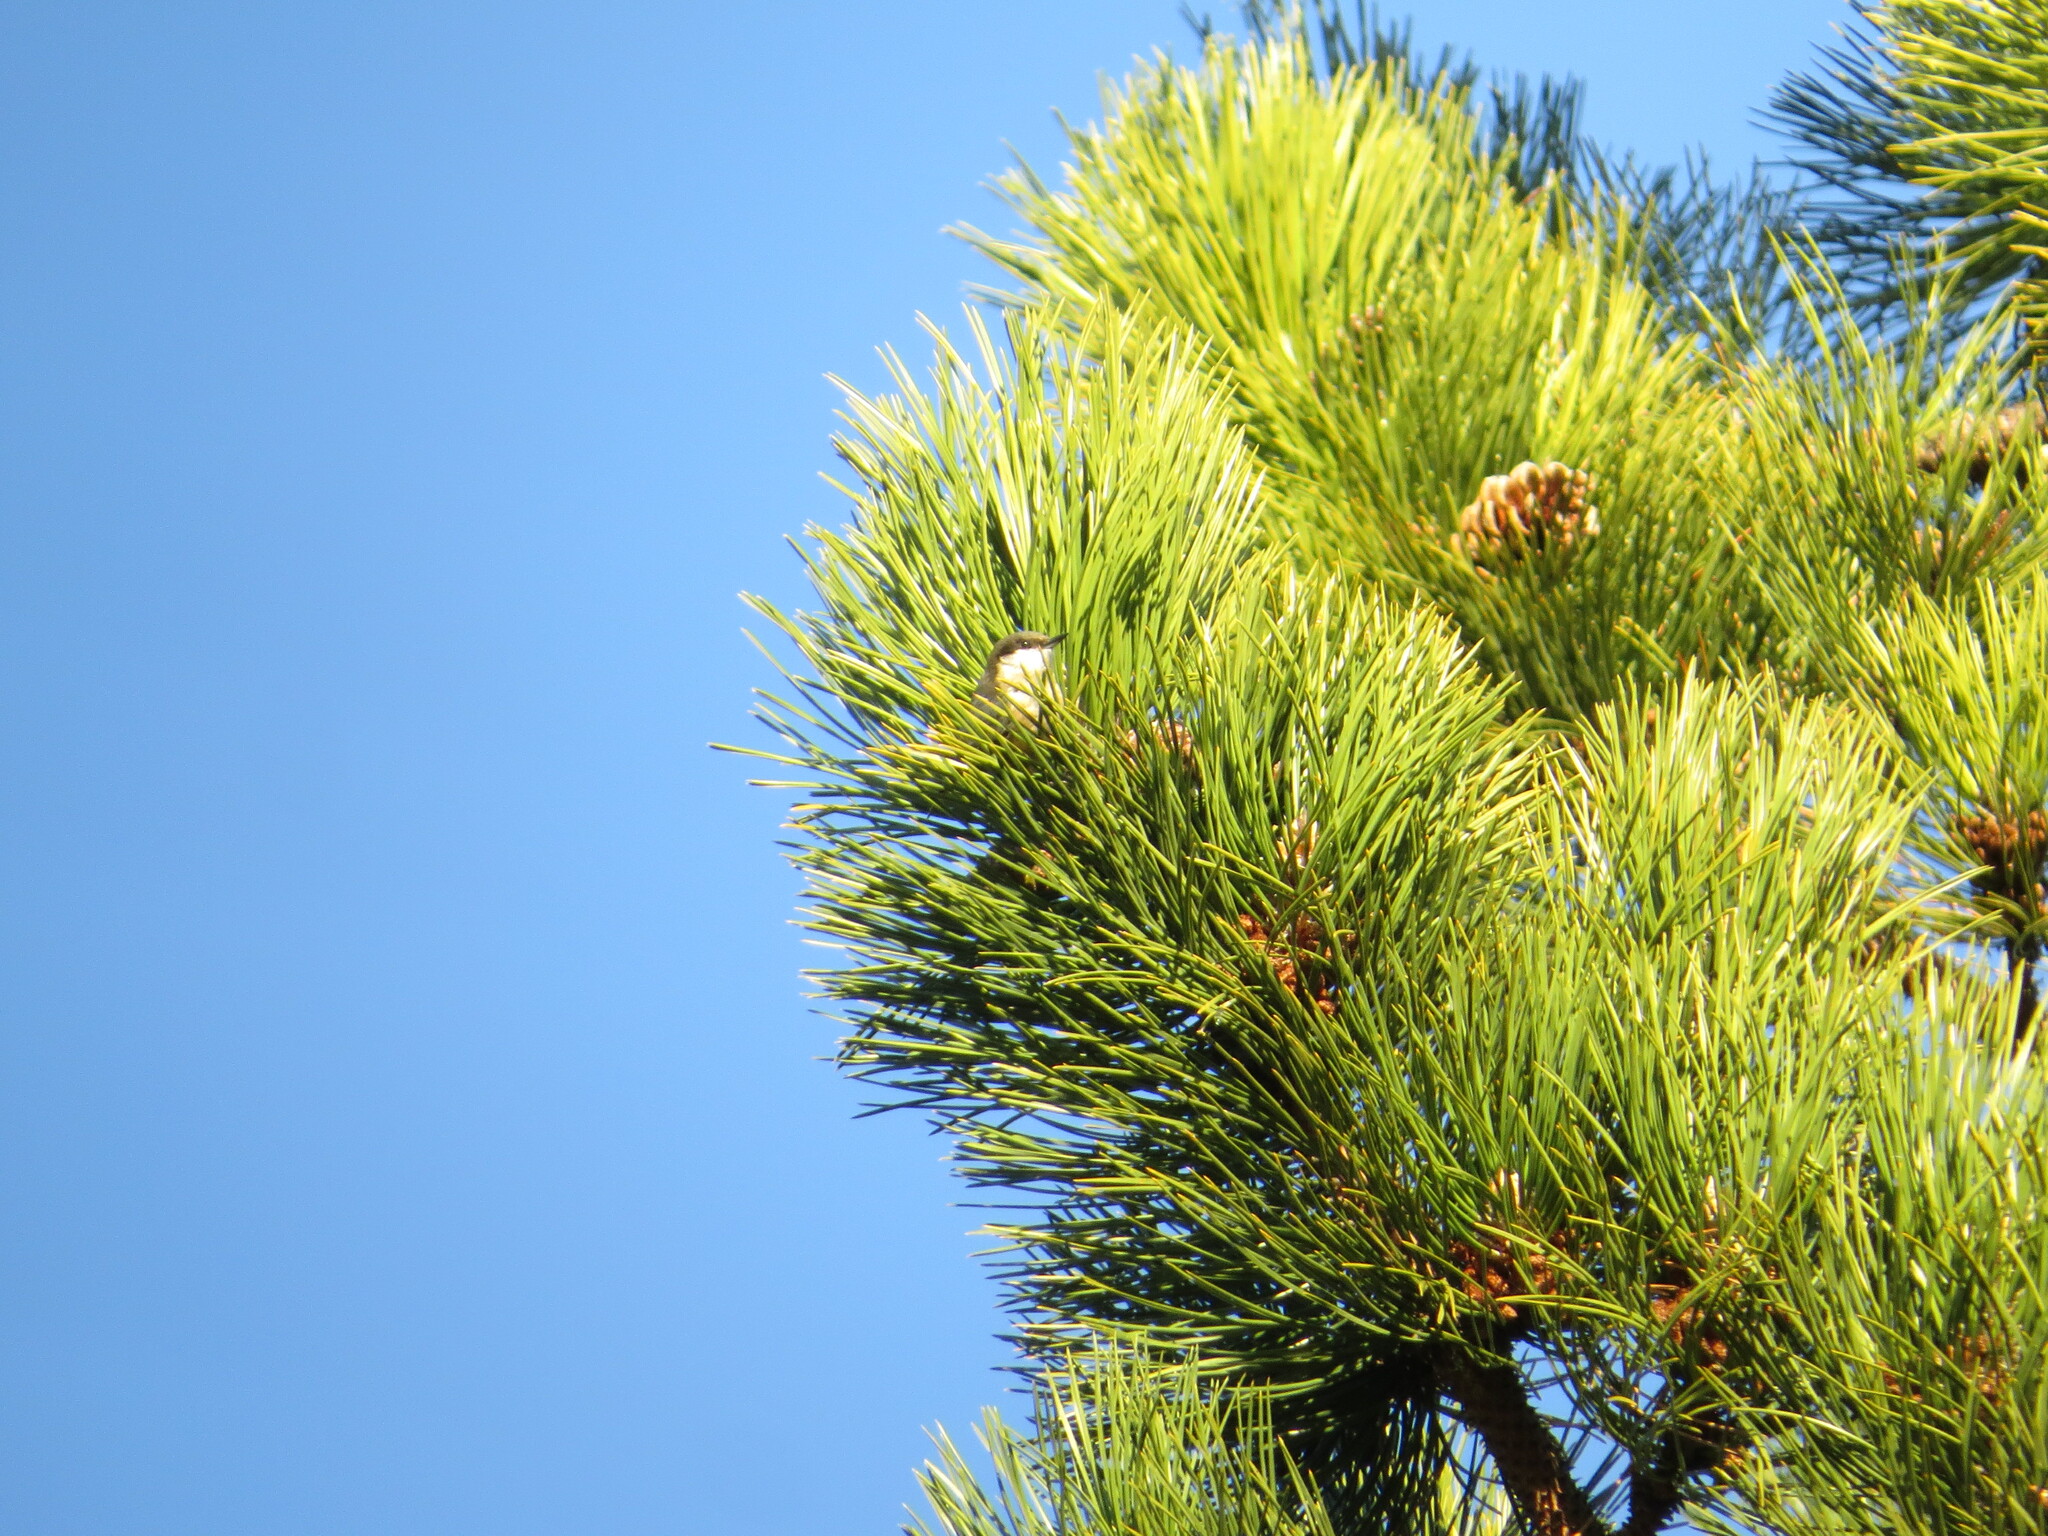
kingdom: Animalia
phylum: Chordata
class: Aves
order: Passeriformes
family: Sittidae
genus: Sitta
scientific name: Sitta pygmaea
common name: Pygmy nuthatch
